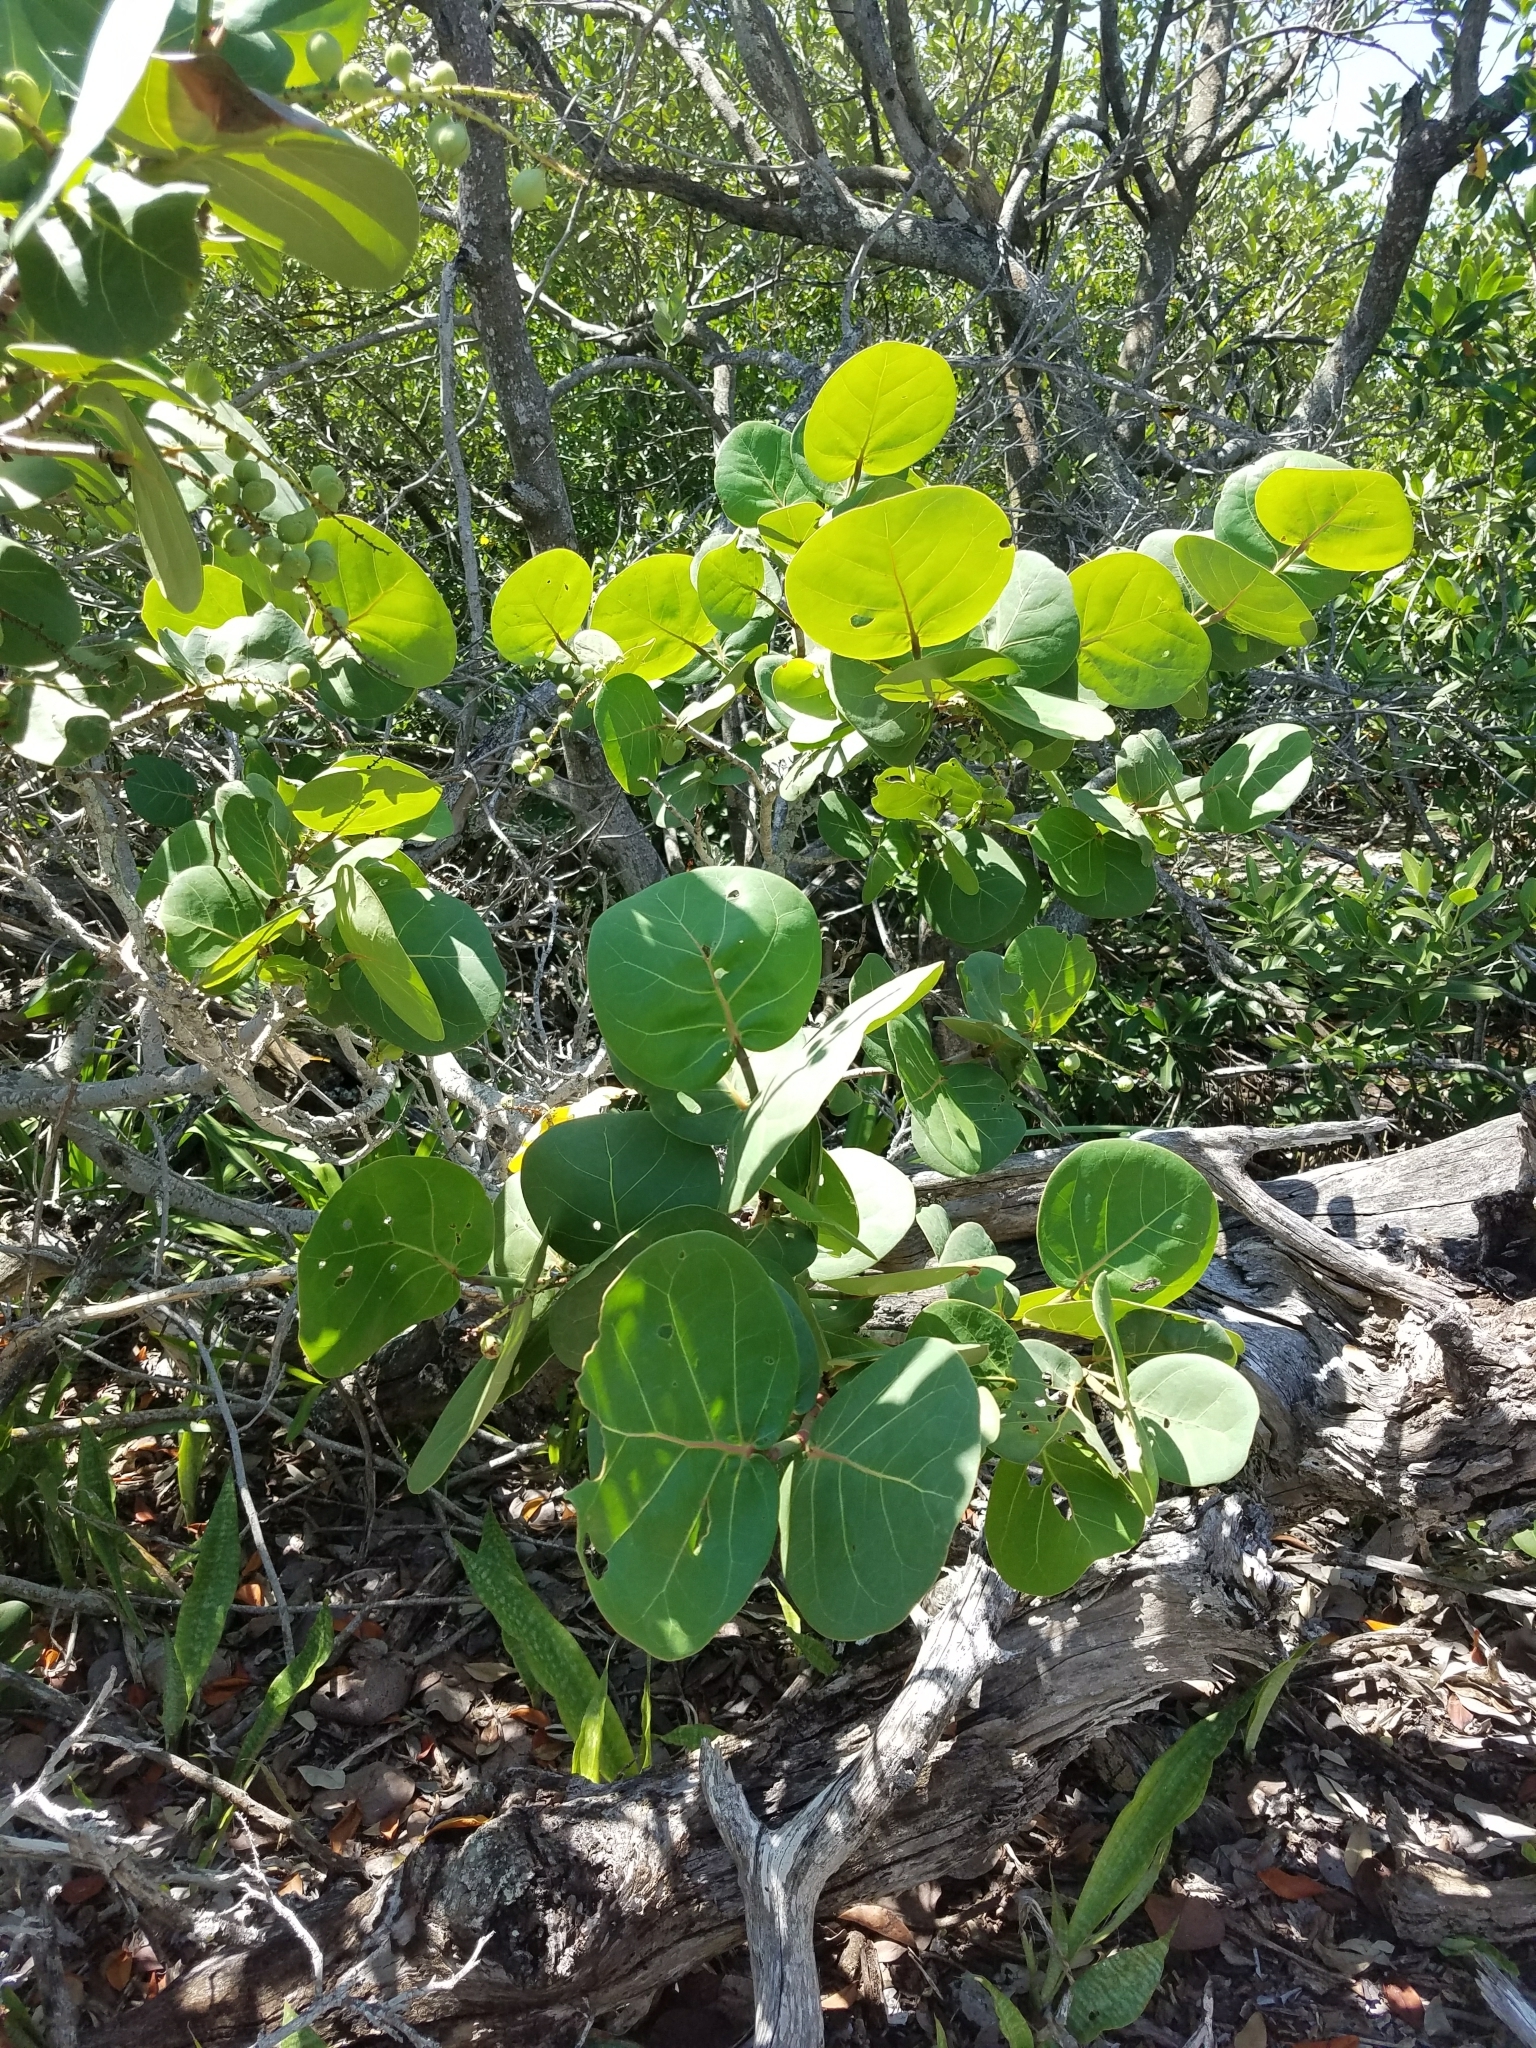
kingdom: Plantae
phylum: Tracheophyta
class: Magnoliopsida
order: Caryophyllales
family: Polygonaceae
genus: Coccoloba
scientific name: Coccoloba uvifera
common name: Seagrape
